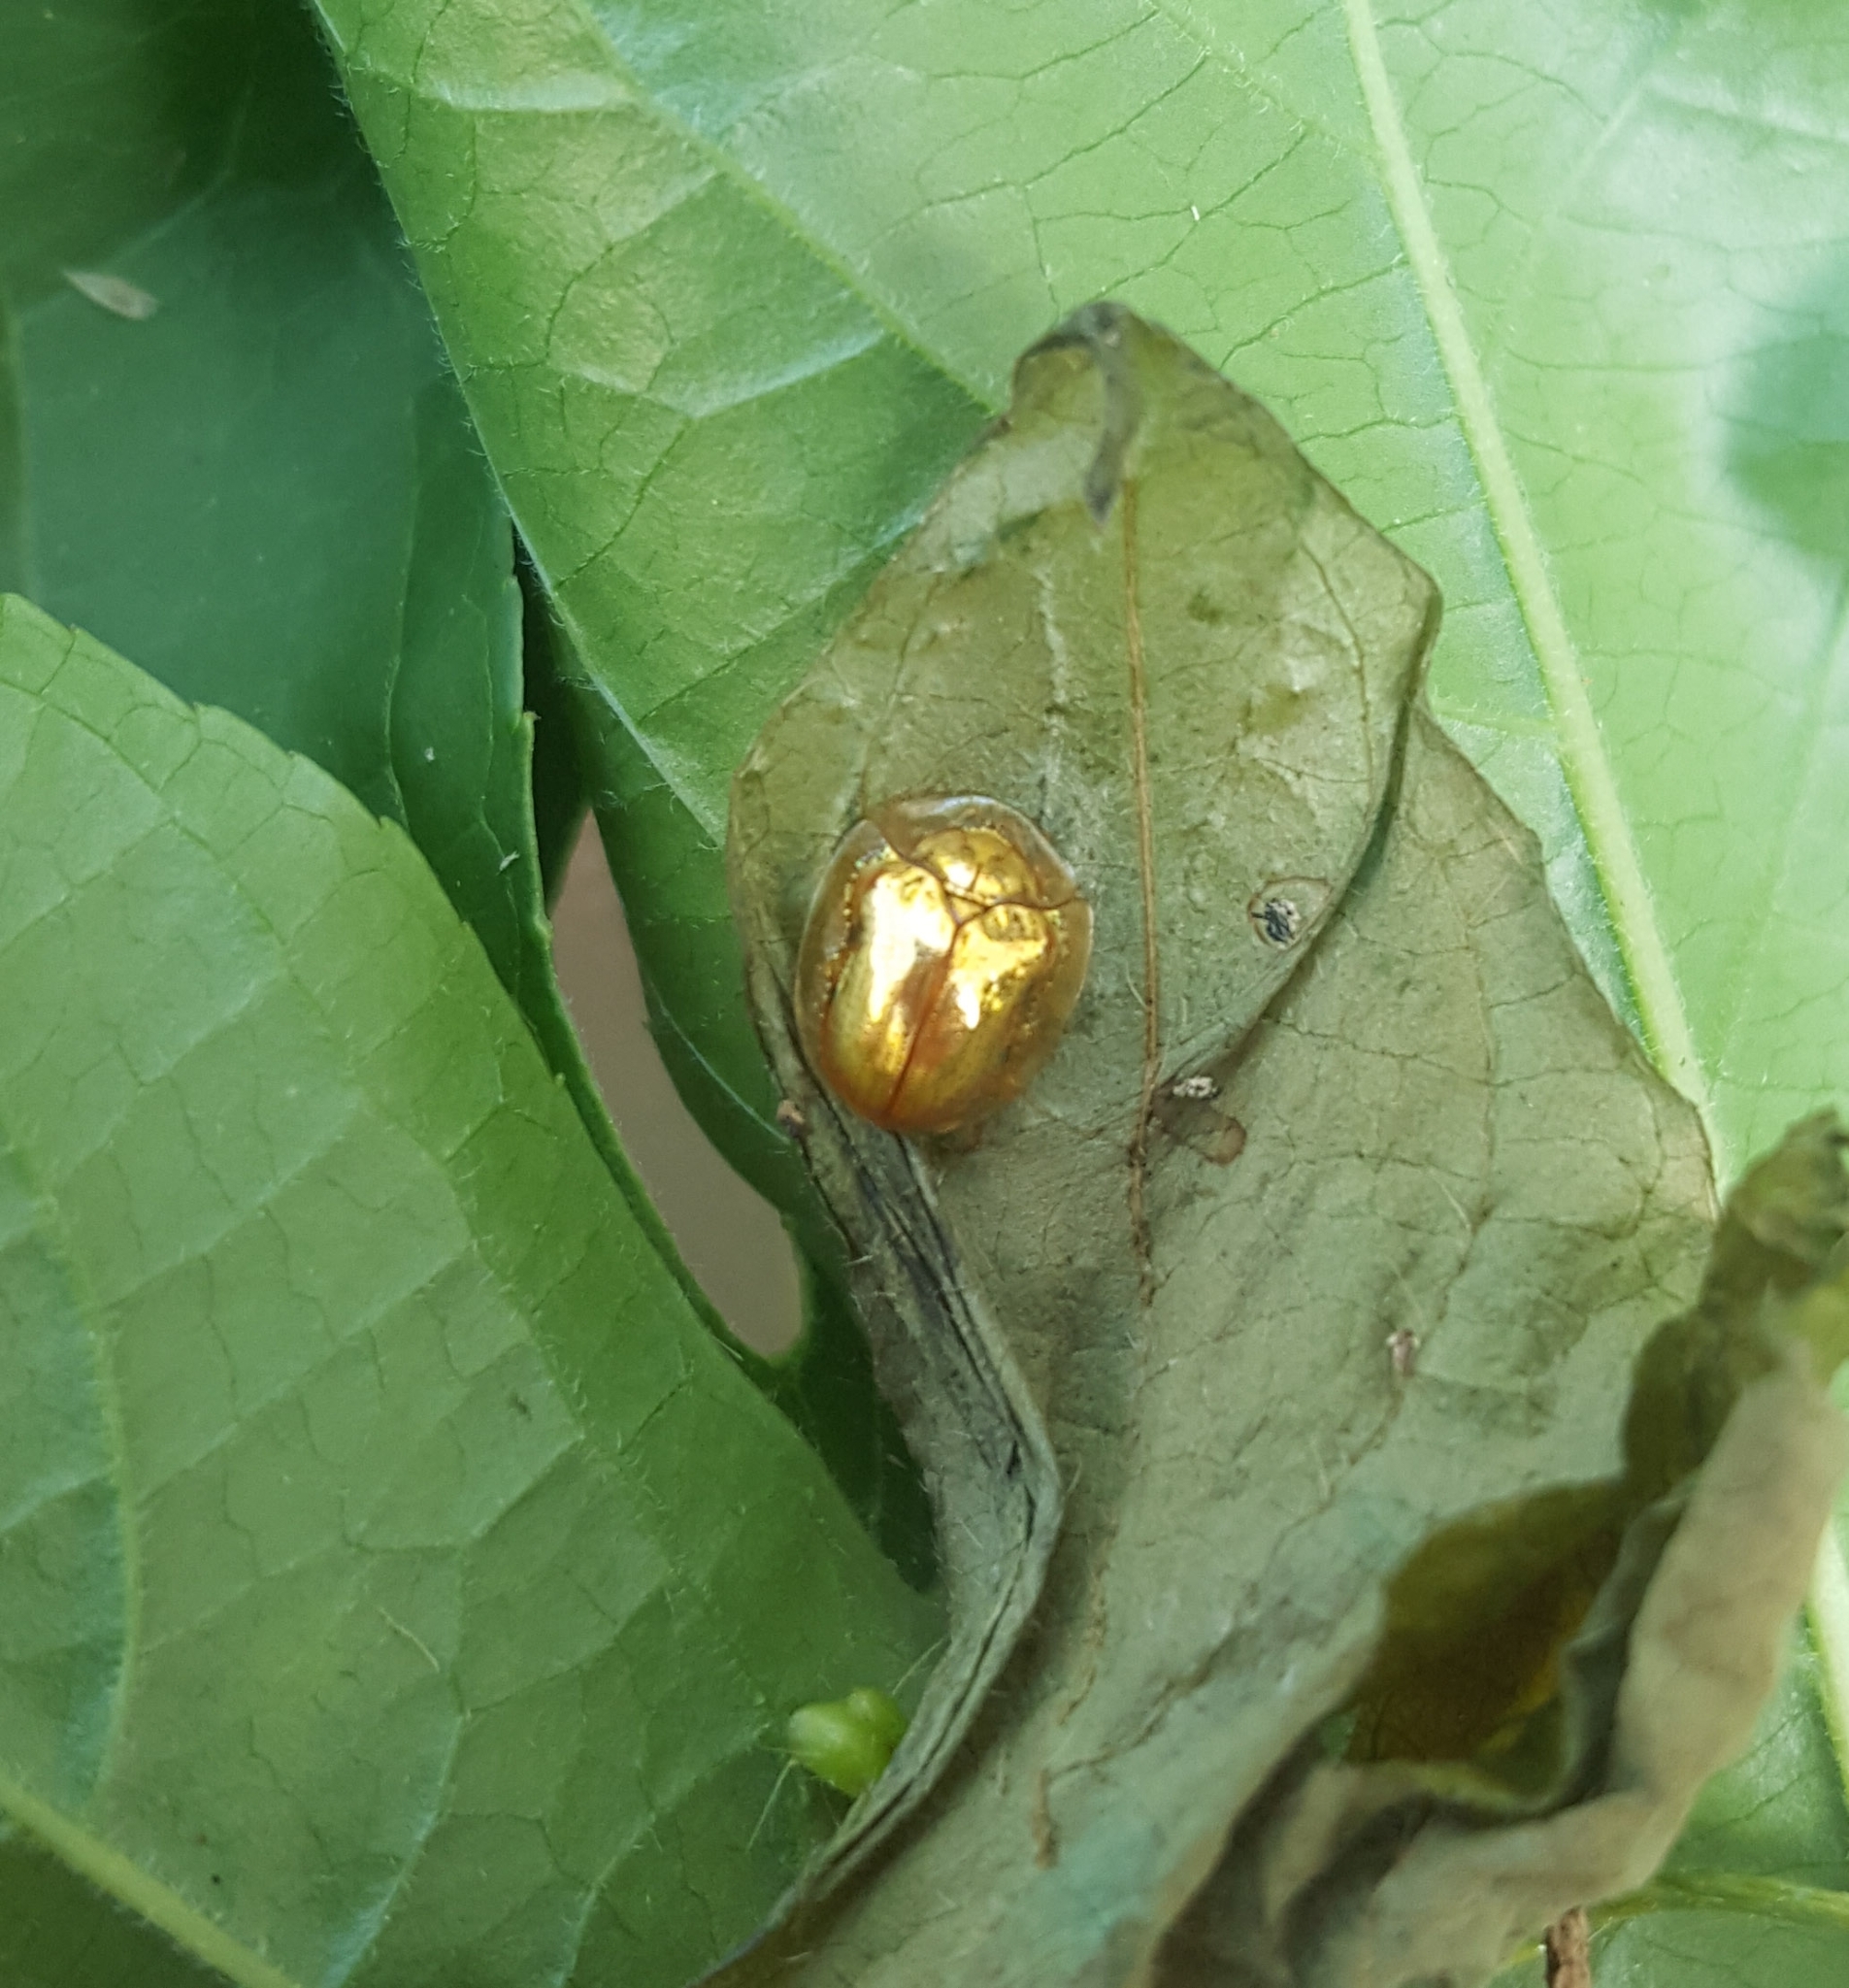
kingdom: Animalia
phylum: Arthropoda
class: Insecta
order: Coleoptera
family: Chrysomelidae
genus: Charidotella
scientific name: Charidotella sexpunctata
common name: Golden tortoise beetle
